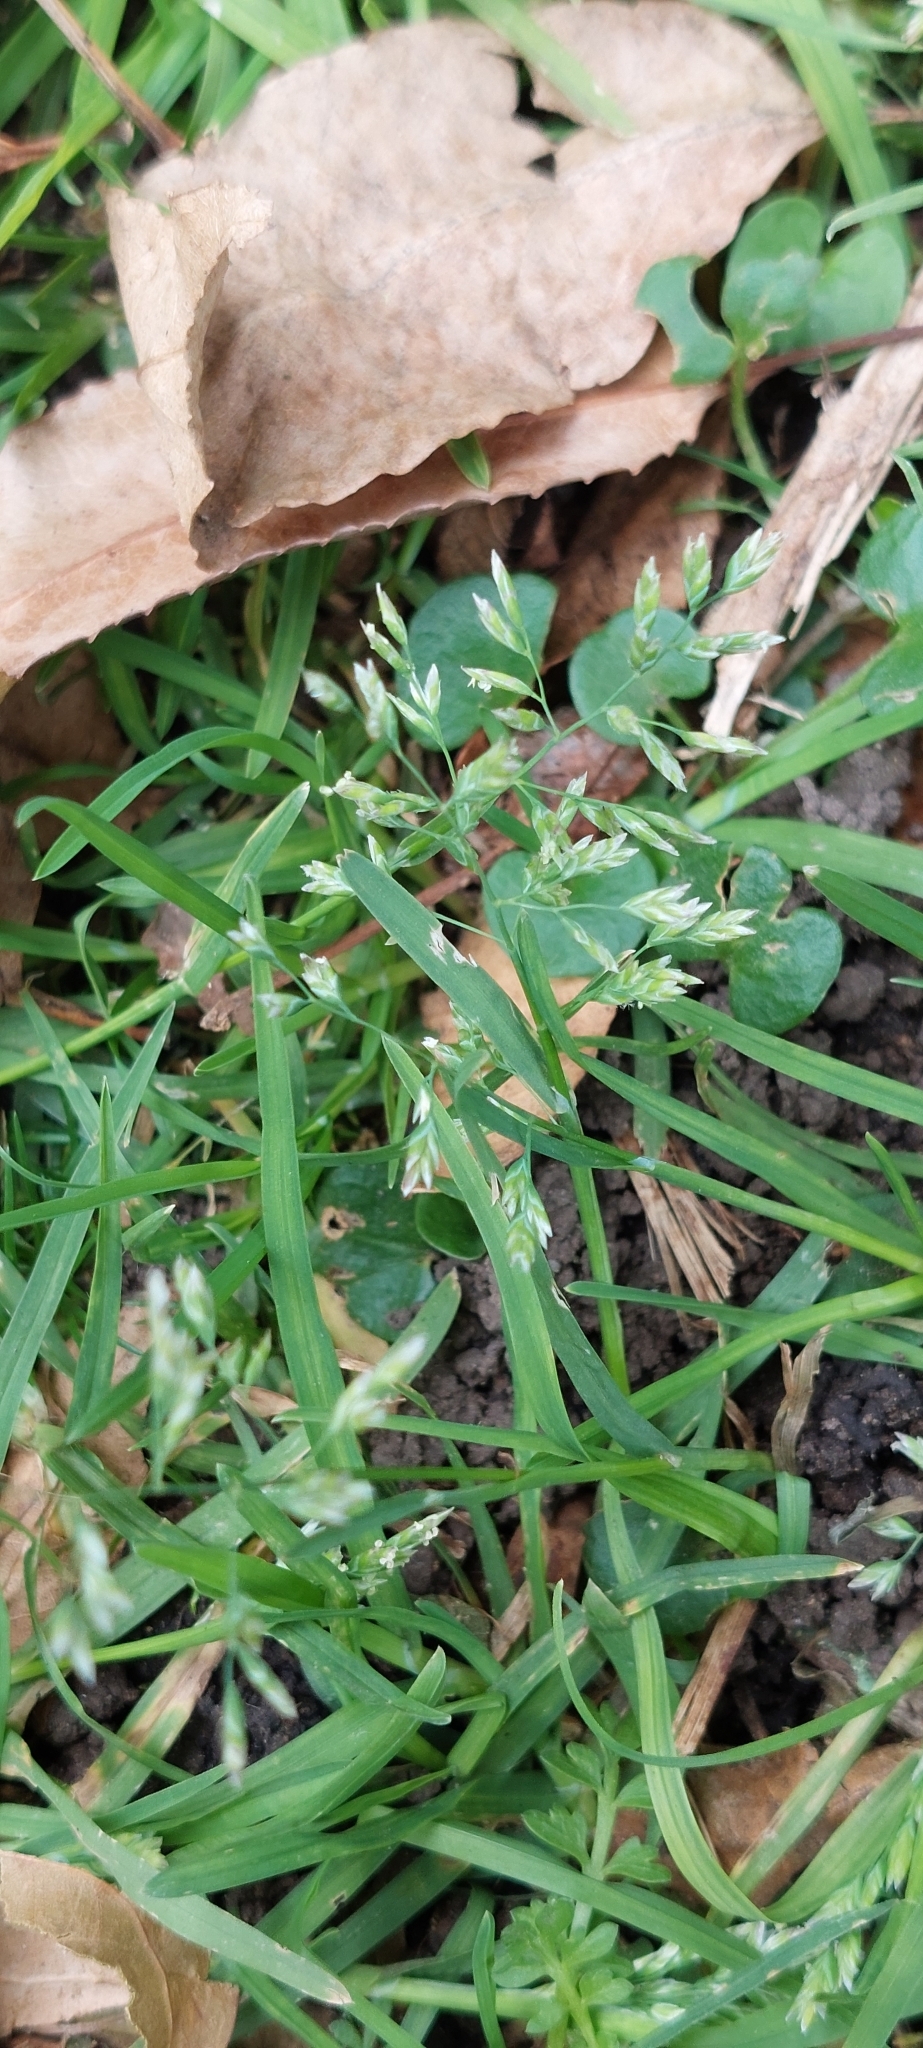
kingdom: Plantae
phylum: Tracheophyta
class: Liliopsida
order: Poales
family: Poaceae
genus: Poa
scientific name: Poa annua
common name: Annual bluegrass
